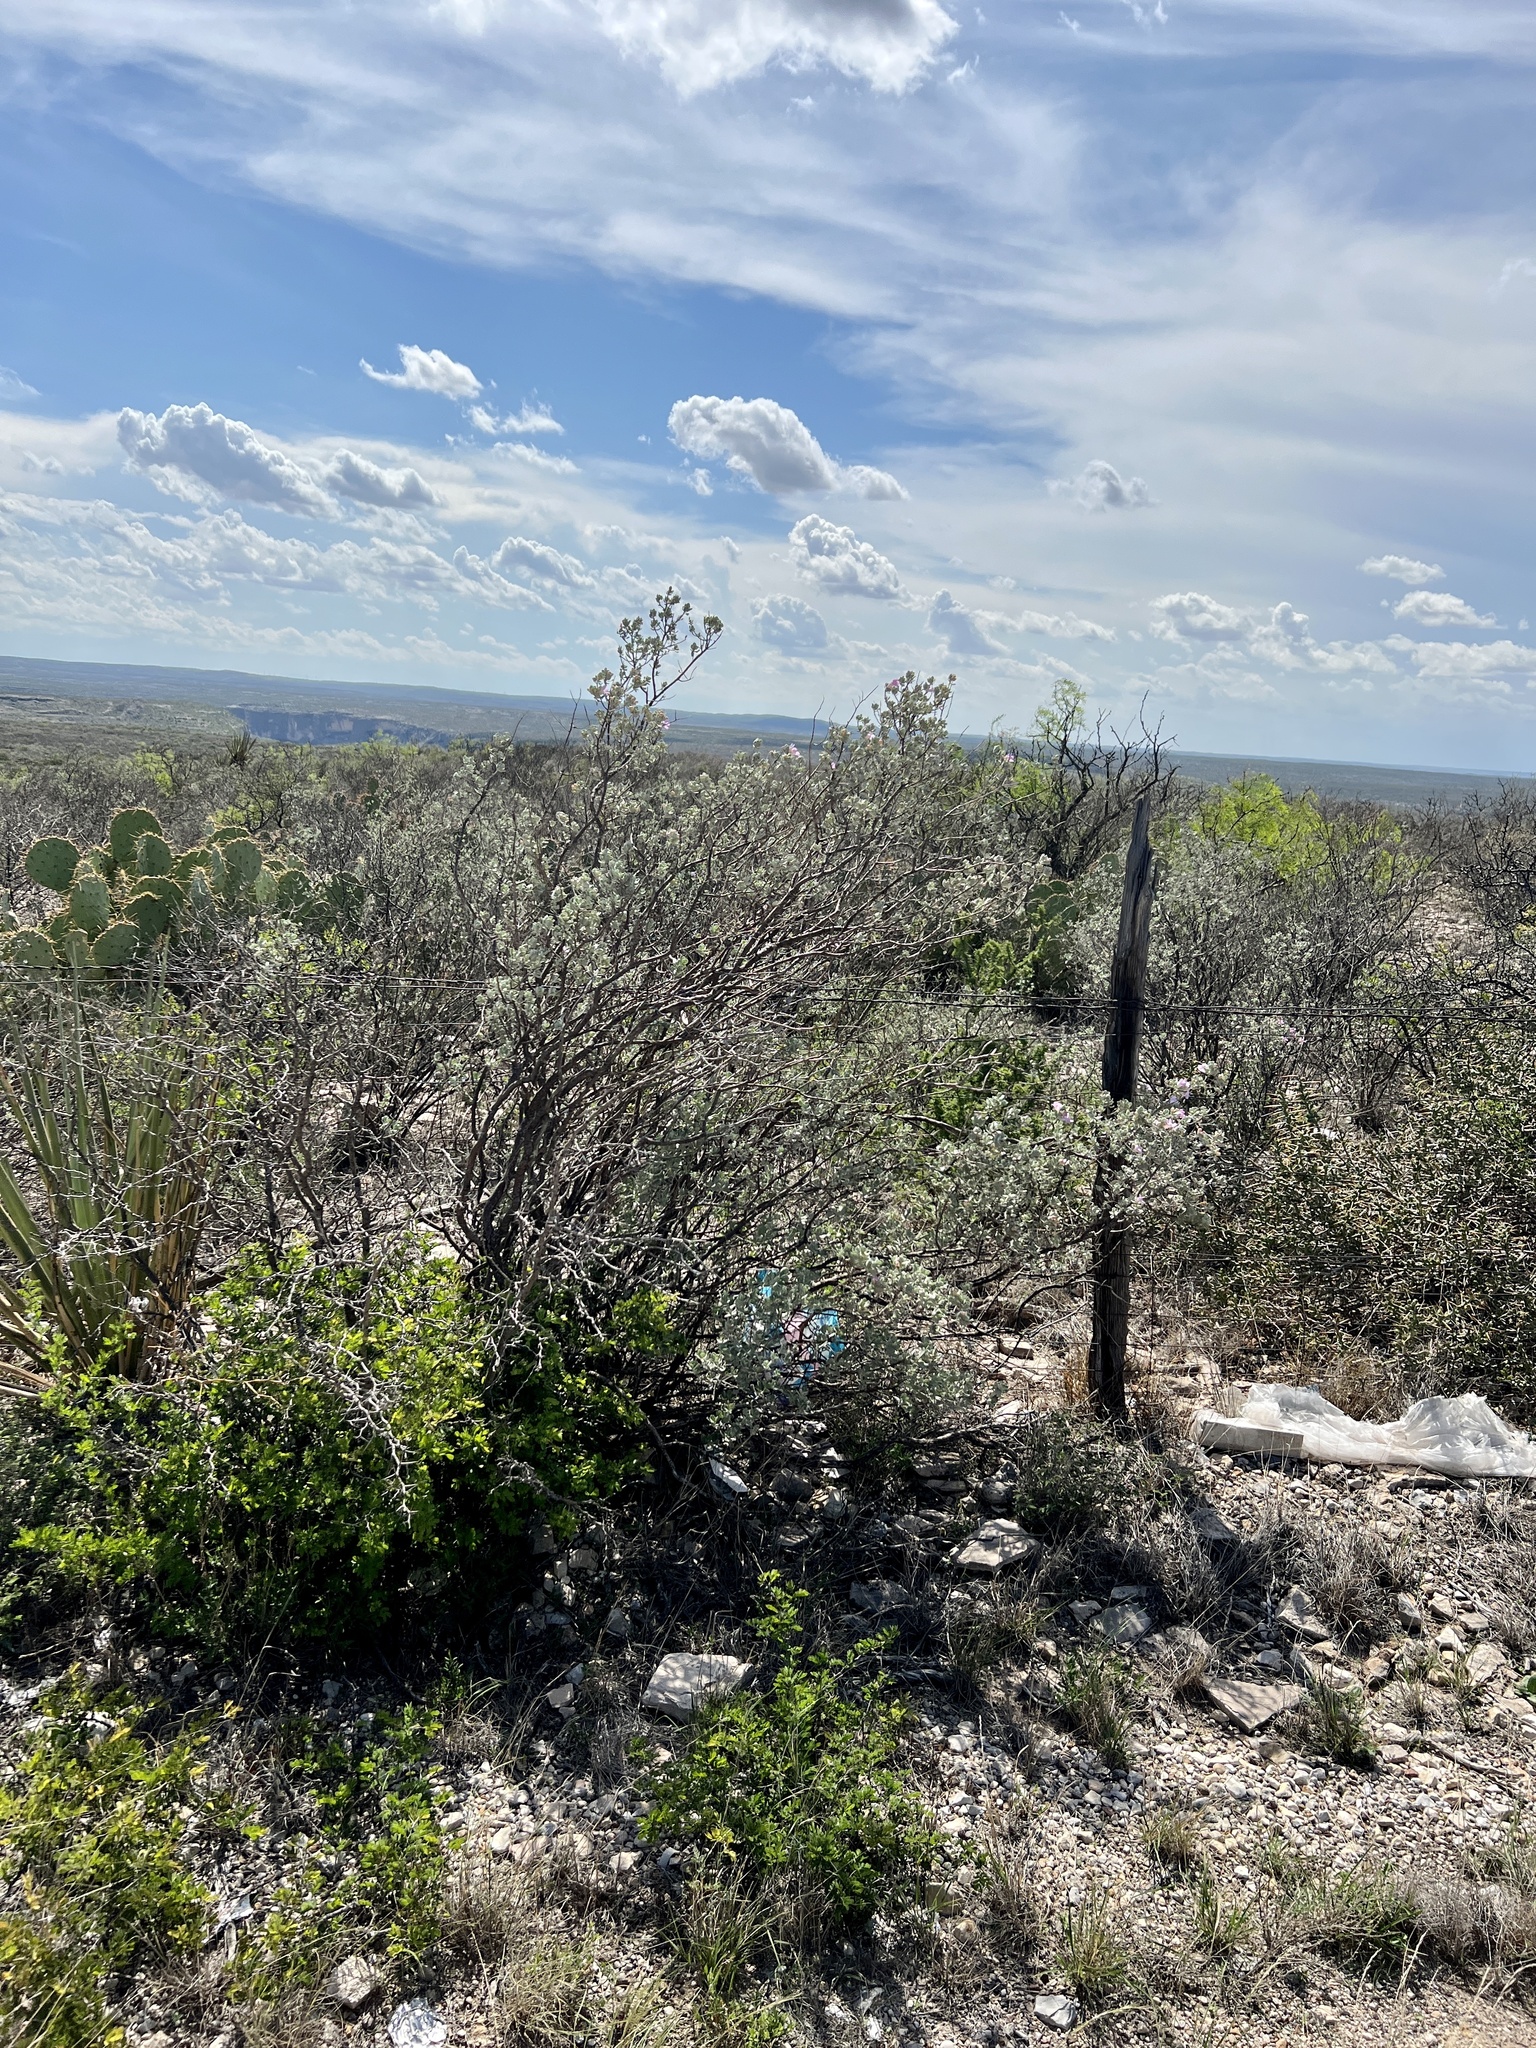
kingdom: Plantae
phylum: Tracheophyta
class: Magnoliopsida
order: Lamiales
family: Scrophulariaceae
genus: Leucophyllum
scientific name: Leucophyllum frutescens
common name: Texas silverleaf
